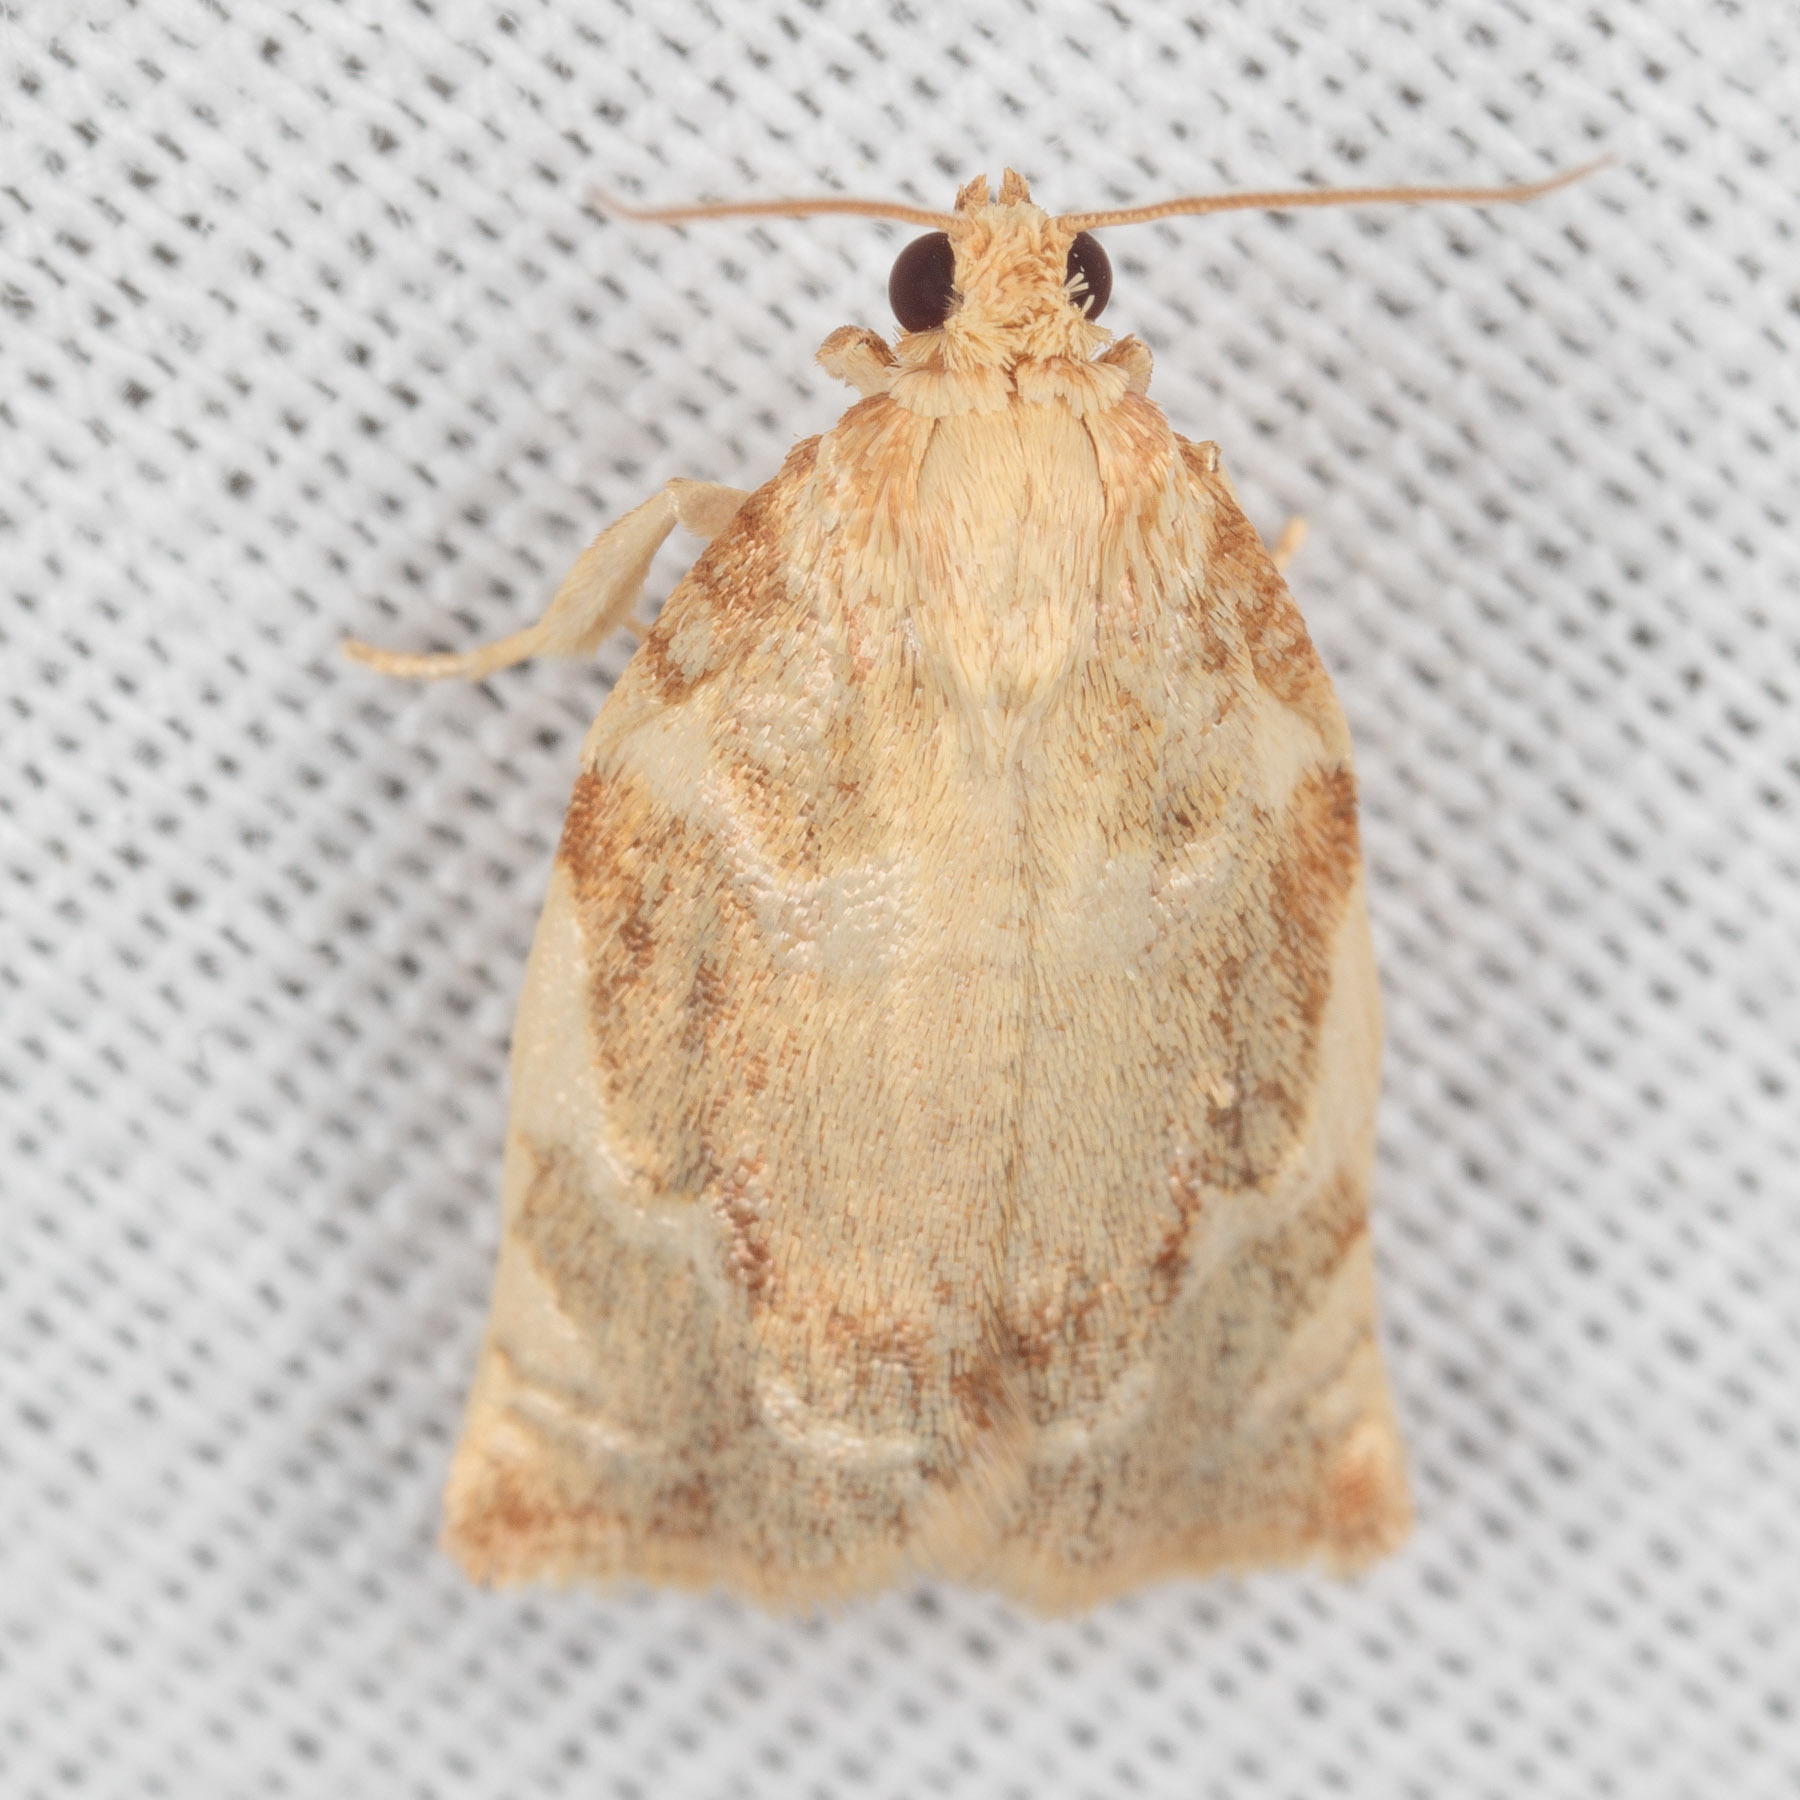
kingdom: Animalia
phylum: Arthropoda
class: Insecta
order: Lepidoptera
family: Tortricidae
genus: Archips
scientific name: Archips semiferanus
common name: Oak leafroller
